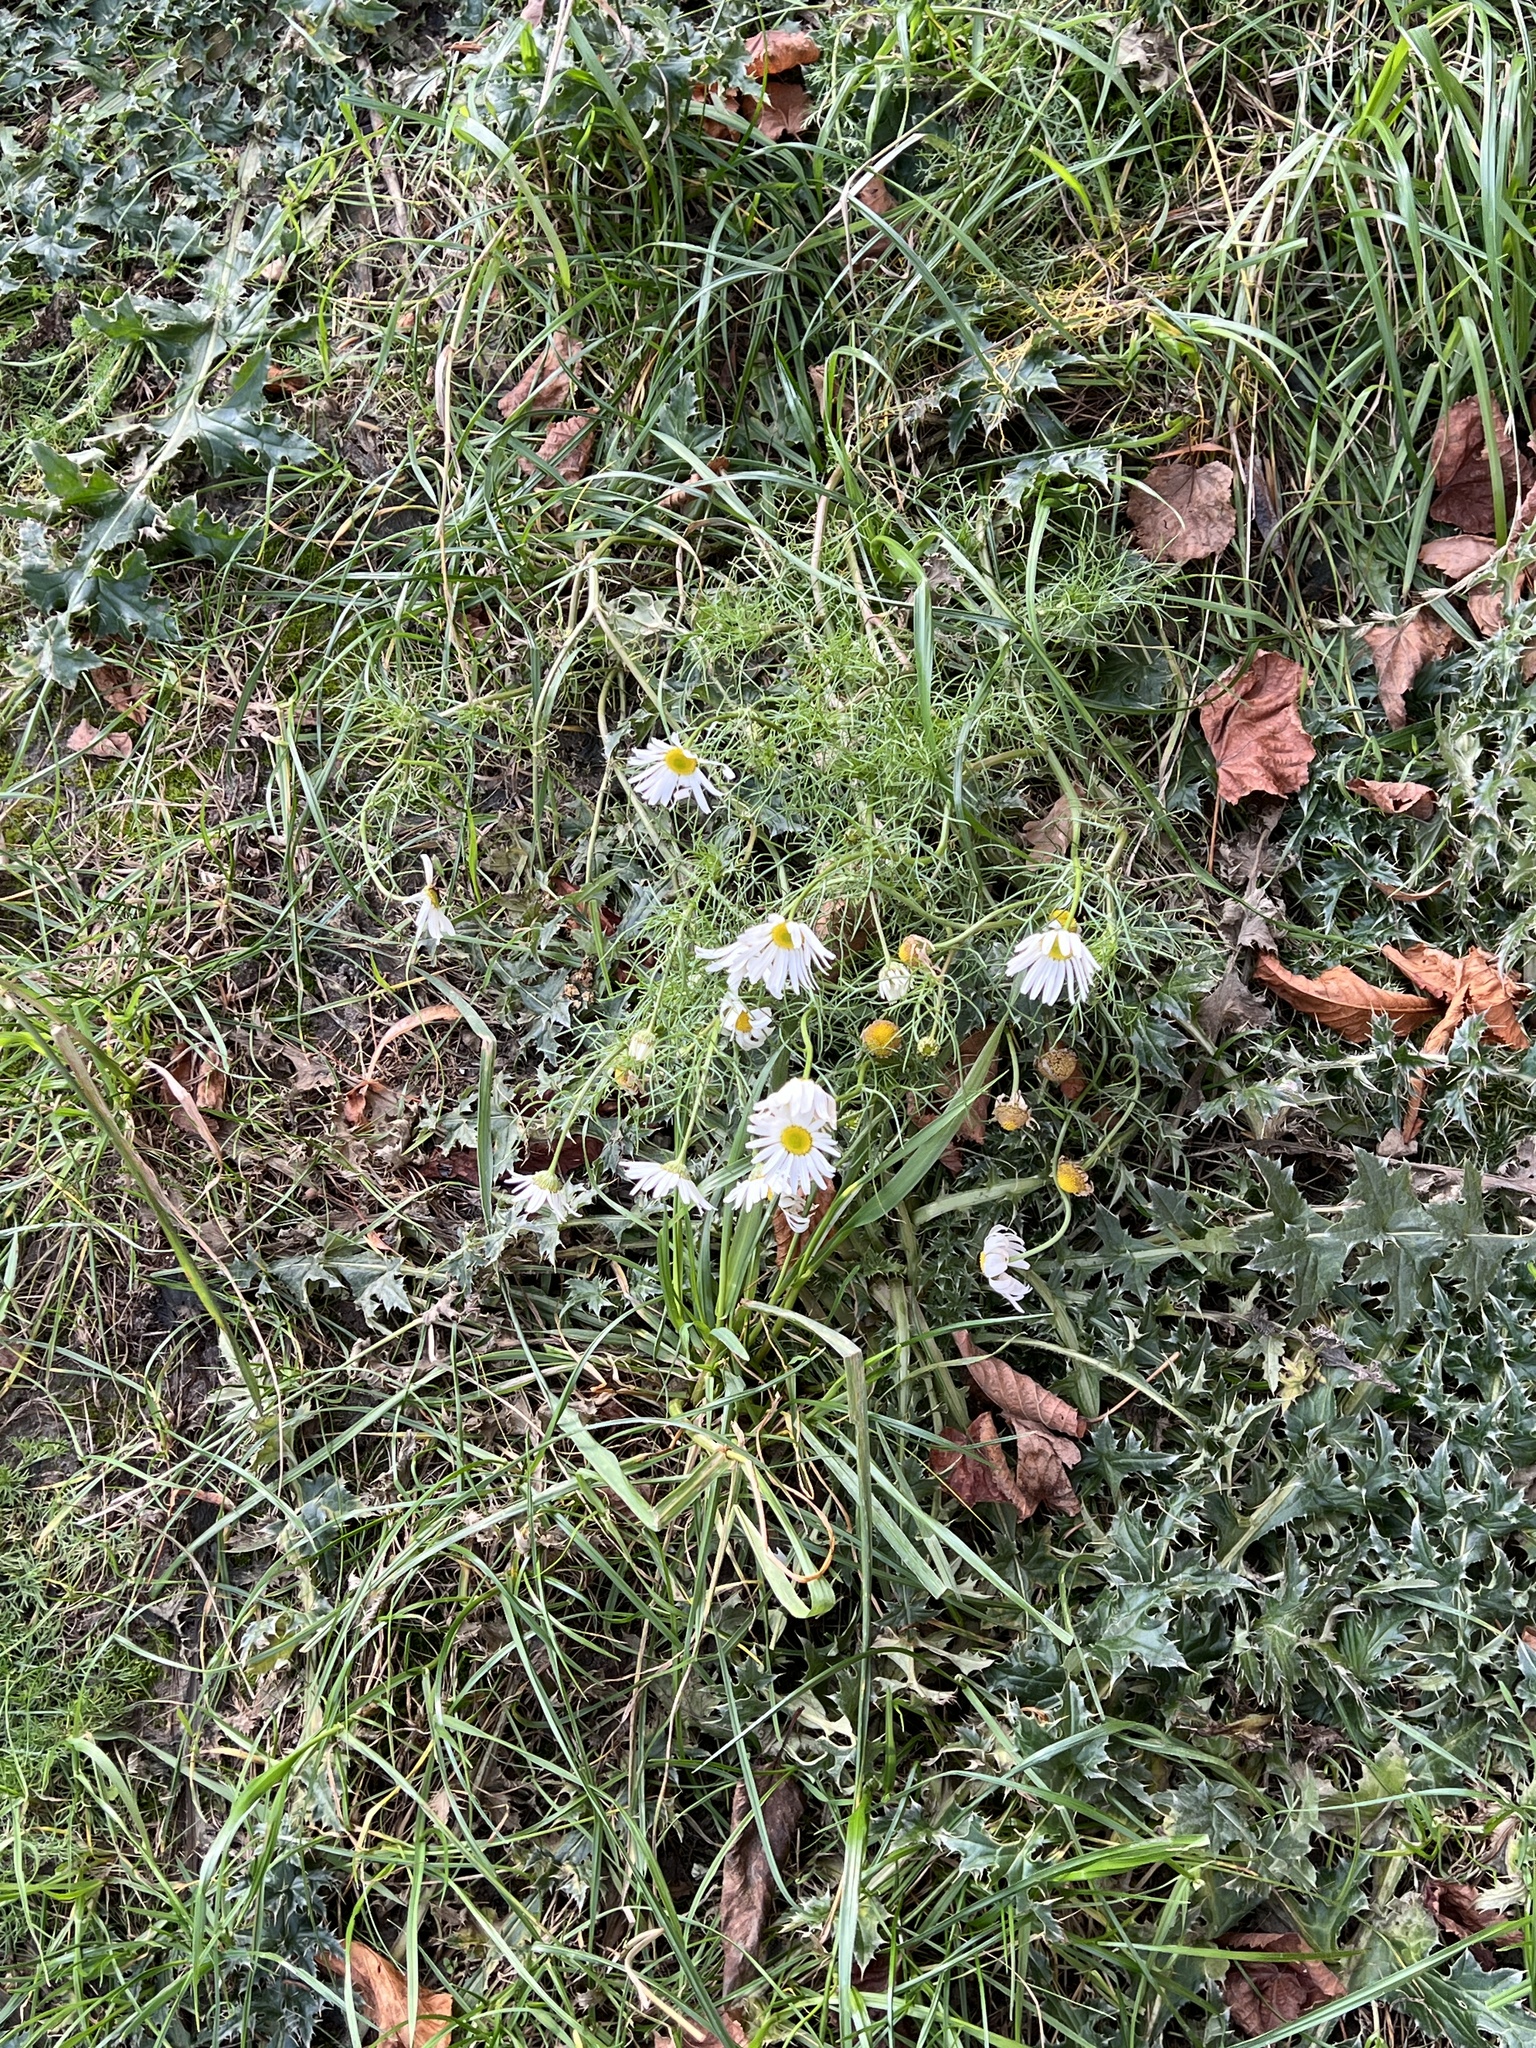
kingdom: Plantae
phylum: Tracheophyta
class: Magnoliopsida
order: Asterales
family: Asteraceae
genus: Tripleurospermum
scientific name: Tripleurospermum inodorum
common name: Scentless mayweed
